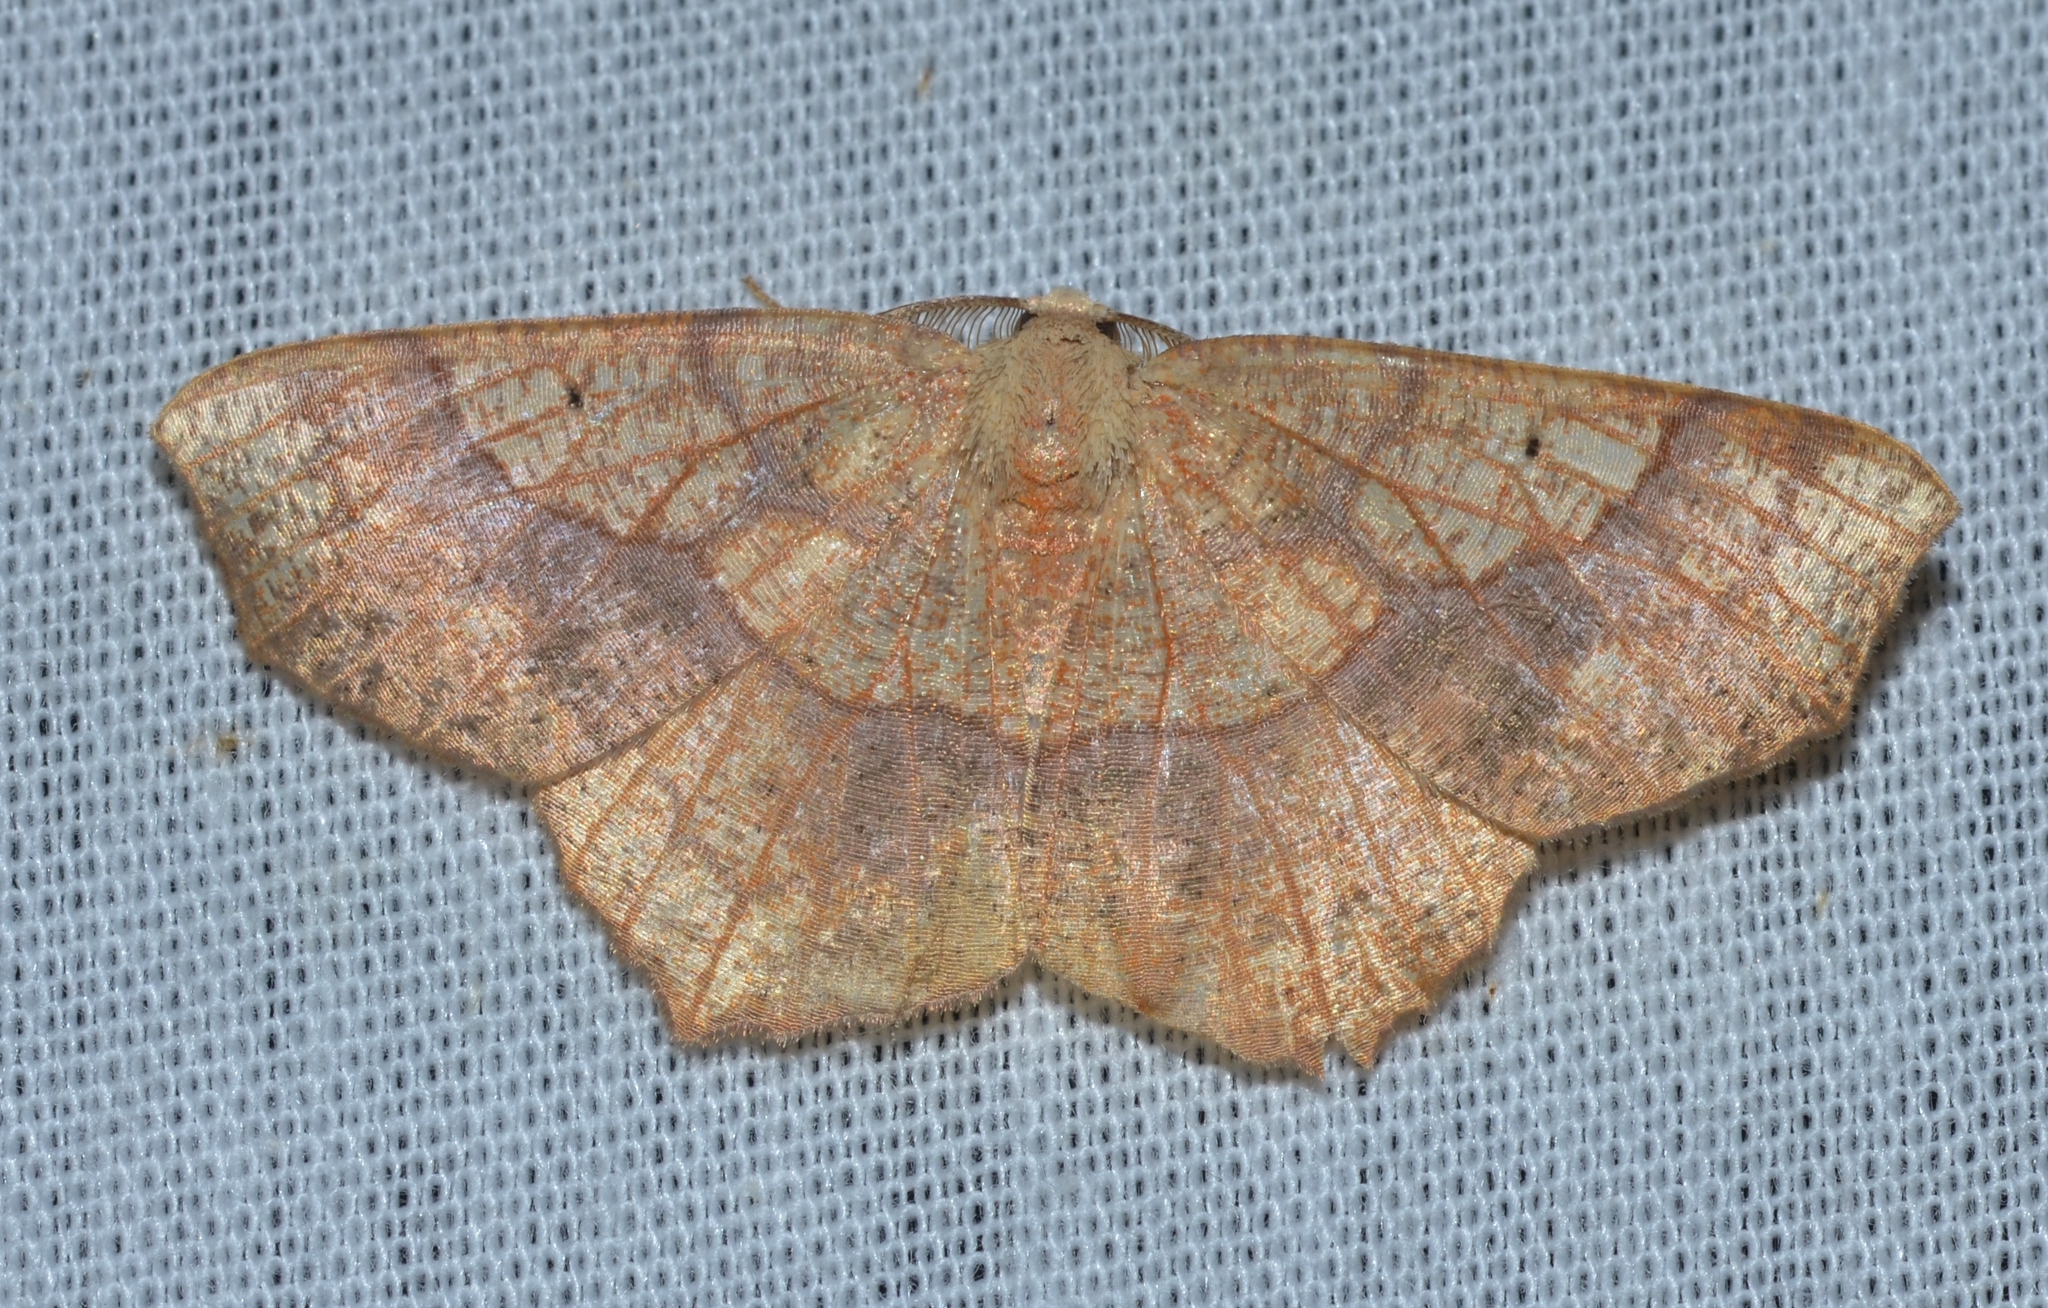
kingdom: Animalia
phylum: Arthropoda
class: Insecta
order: Lepidoptera
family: Geometridae
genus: Besma
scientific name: Besma quercivoraria
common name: Oak besma
